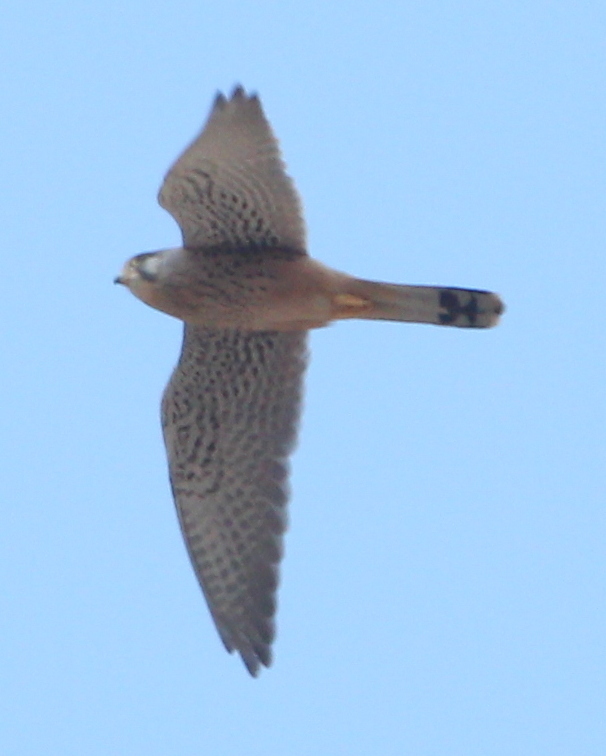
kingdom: Animalia
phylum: Chordata
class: Aves
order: Falconiformes
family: Falconidae
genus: Falco
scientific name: Falco tinnunculus
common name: Common kestrel
